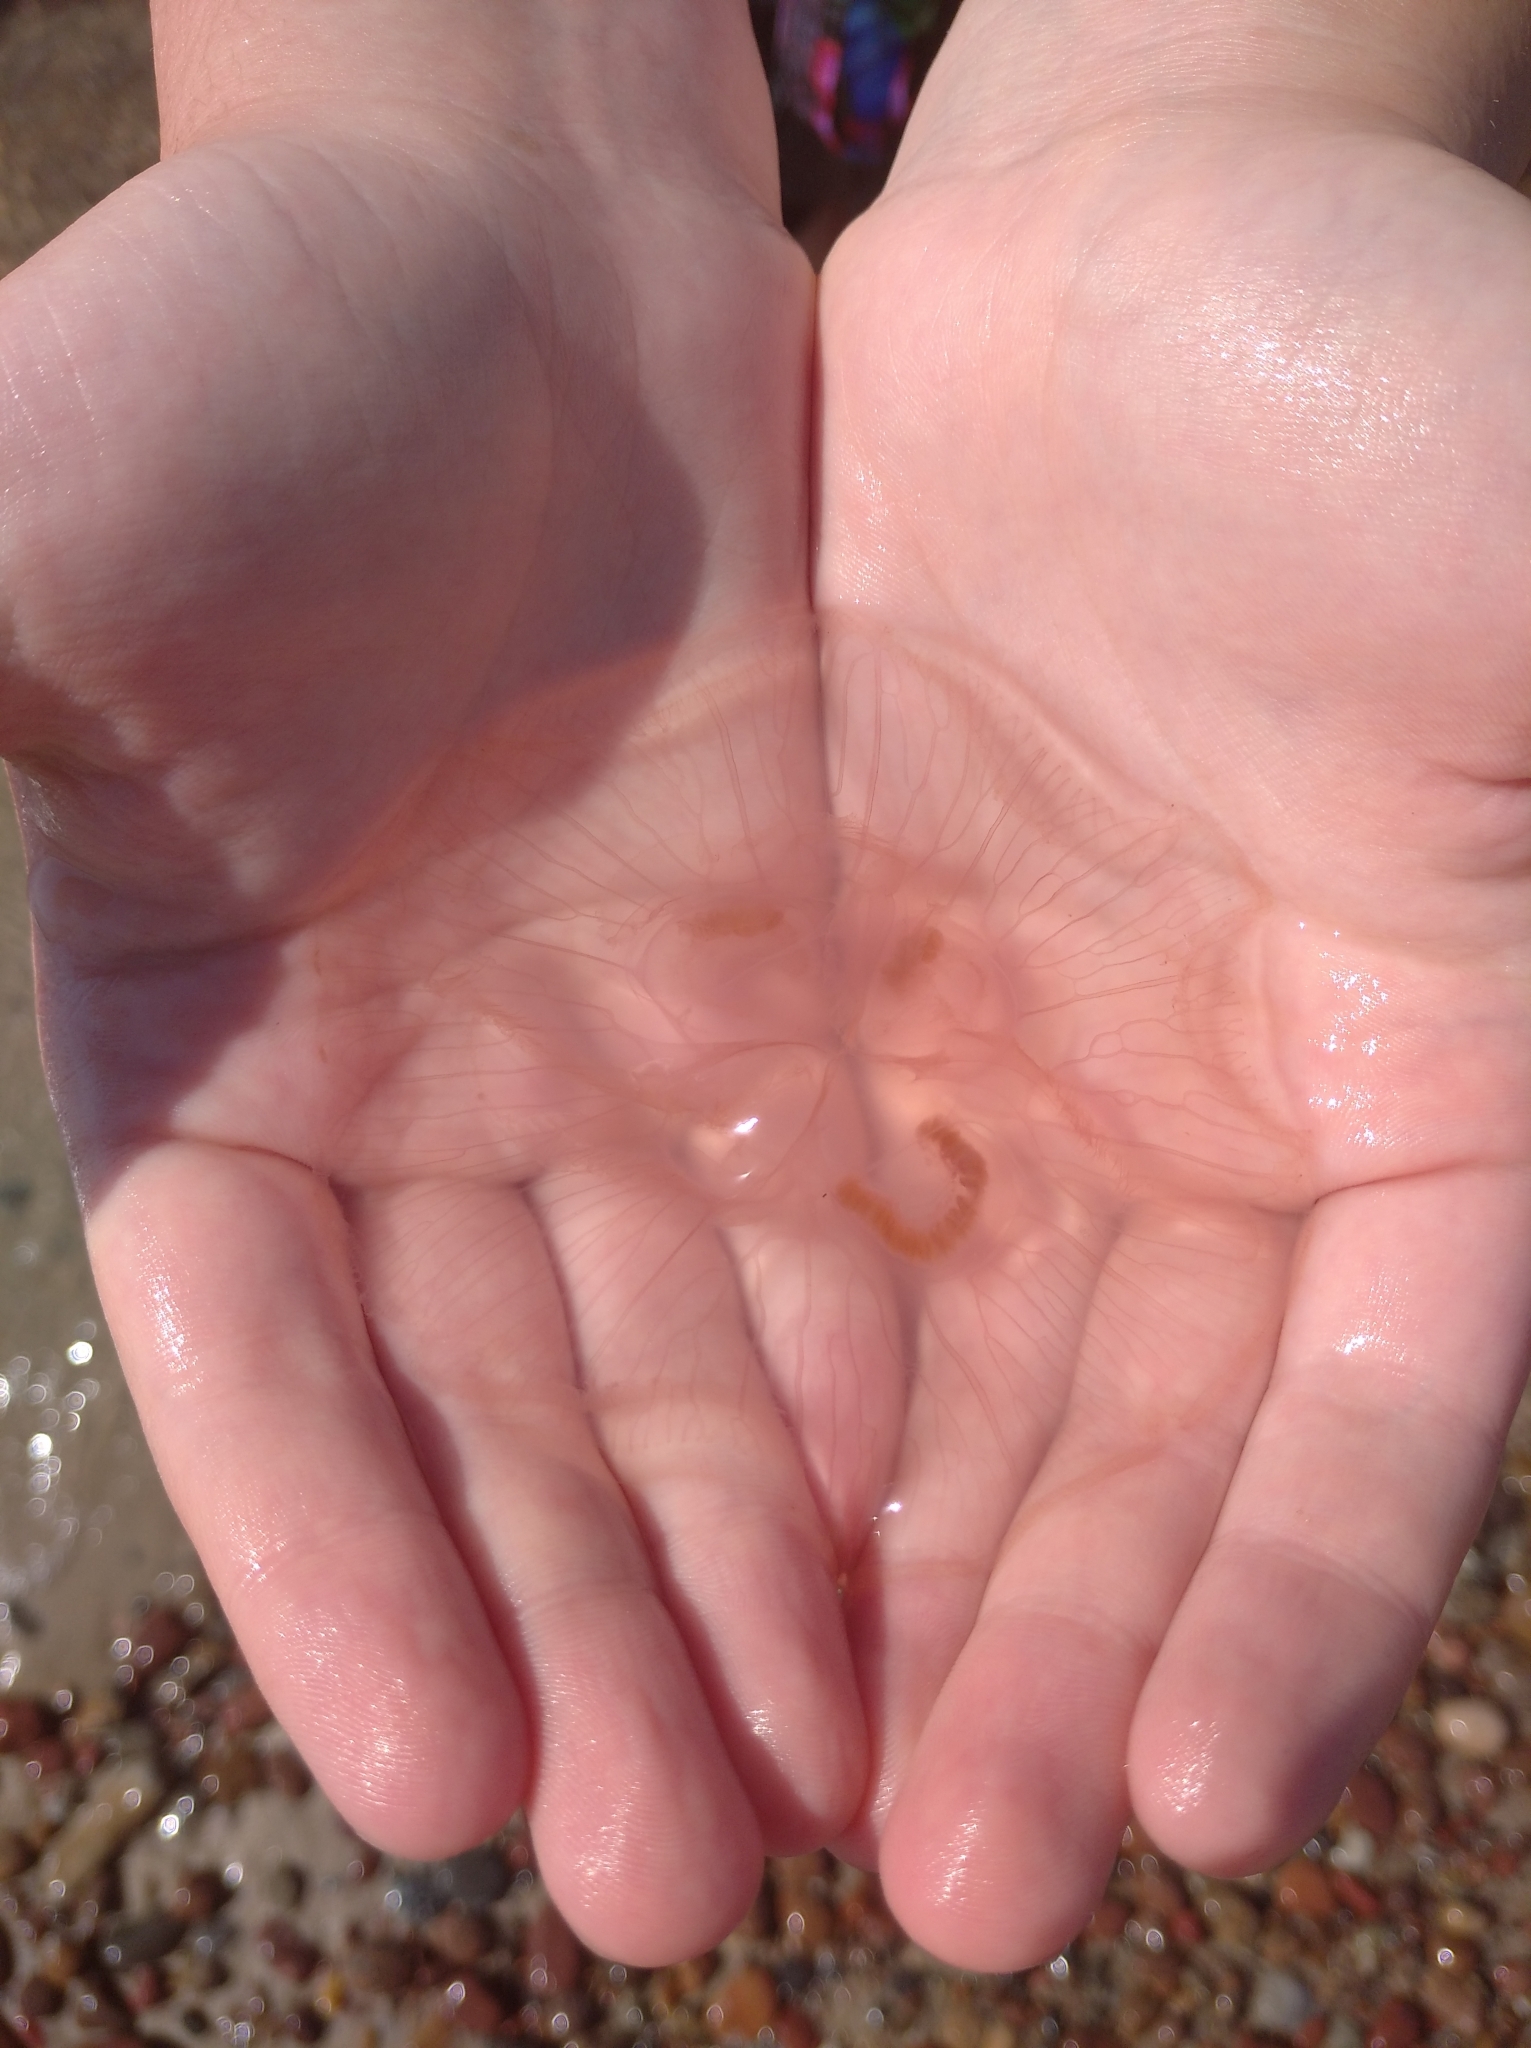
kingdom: Animalia
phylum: Cnidaria
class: Scyphozoa
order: Semaeostomeae
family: Ulmaridae
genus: Aurelia
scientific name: Aurelia aurita
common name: Moon jellyfish
